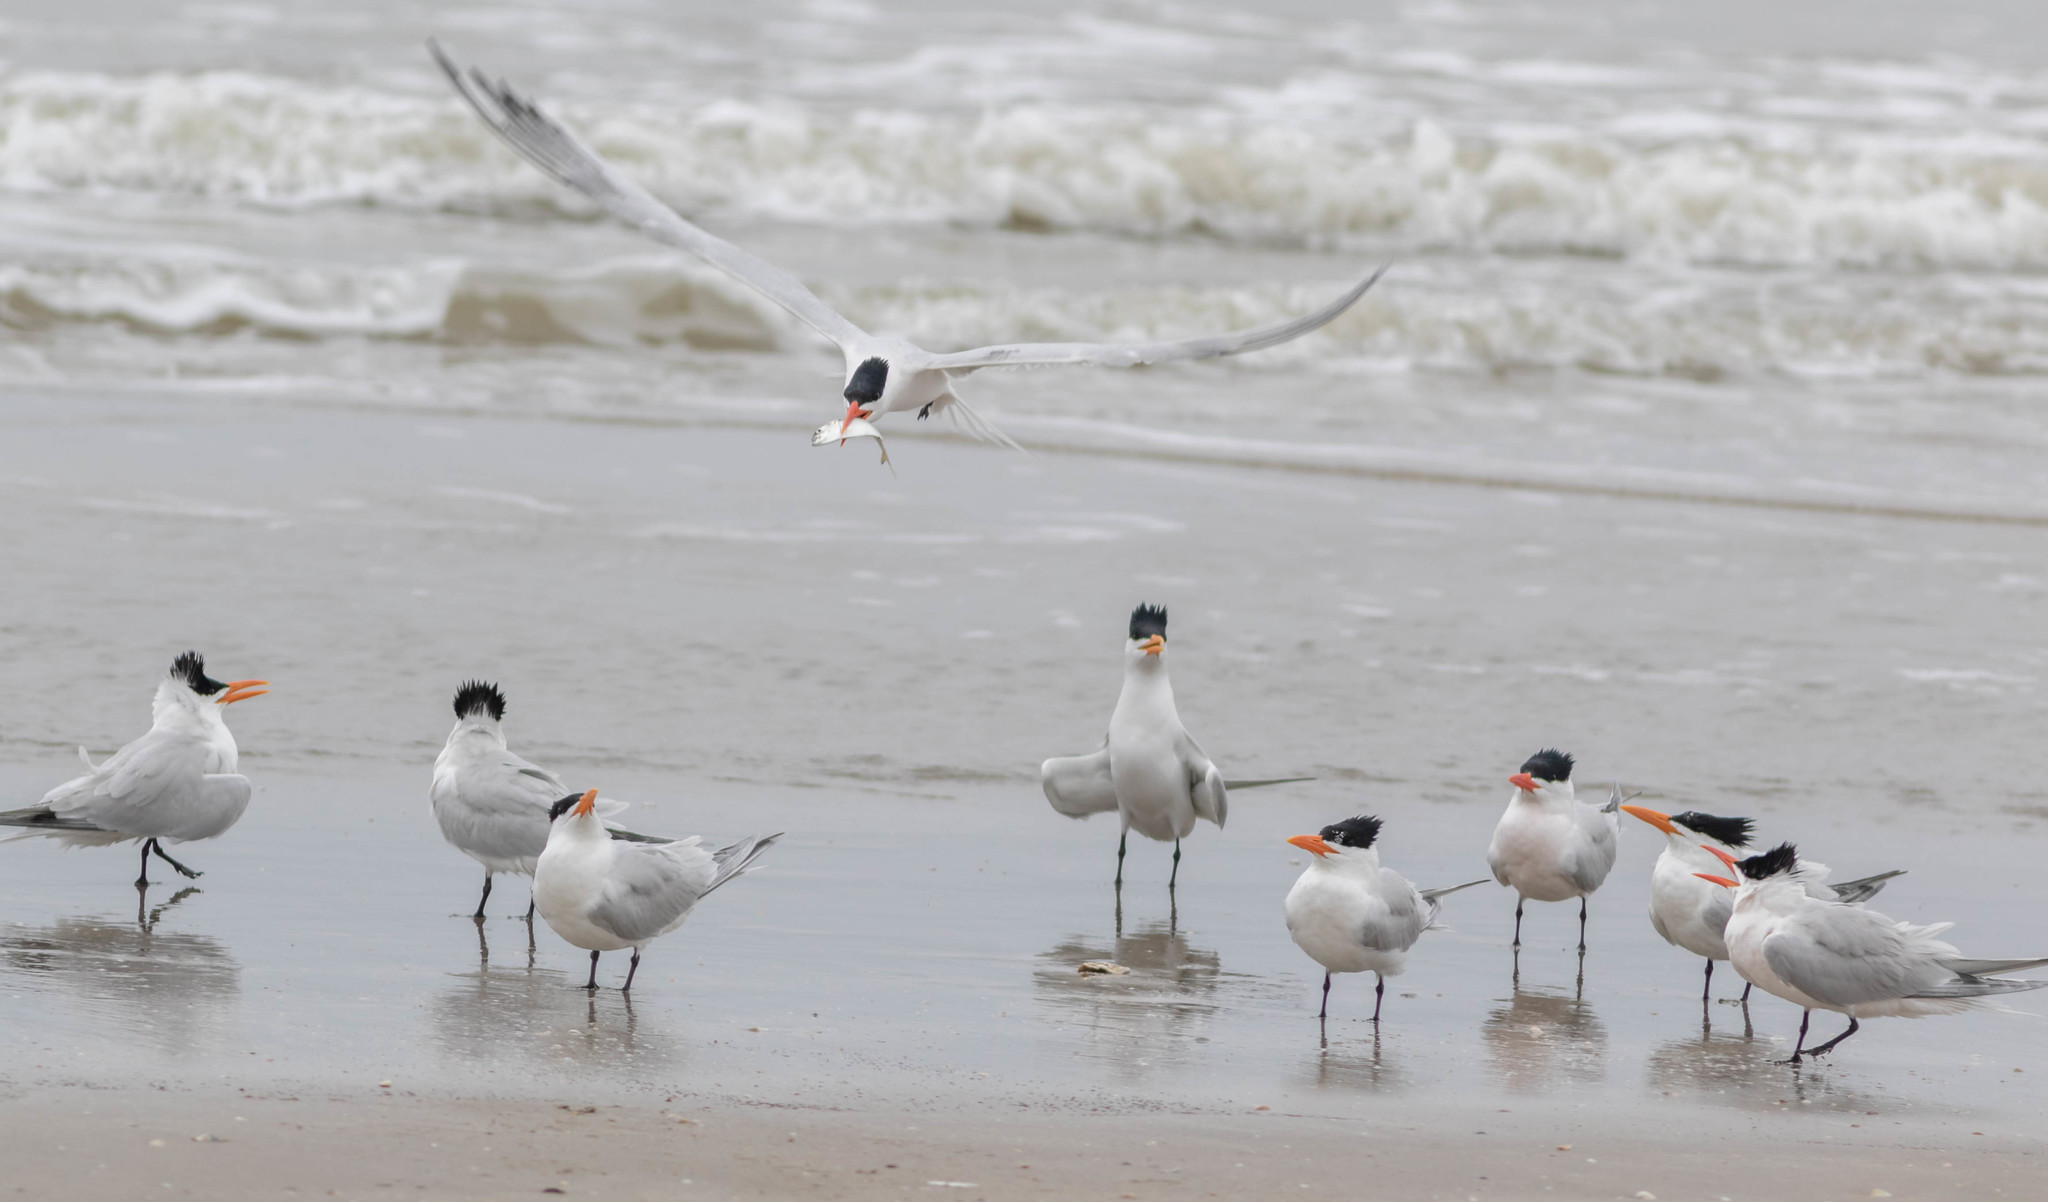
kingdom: Animalia
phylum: Chordata
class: Aves
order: Charadriiformes
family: Laridae
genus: Thalasseus
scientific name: Thalasseus maximus
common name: Royal tern
